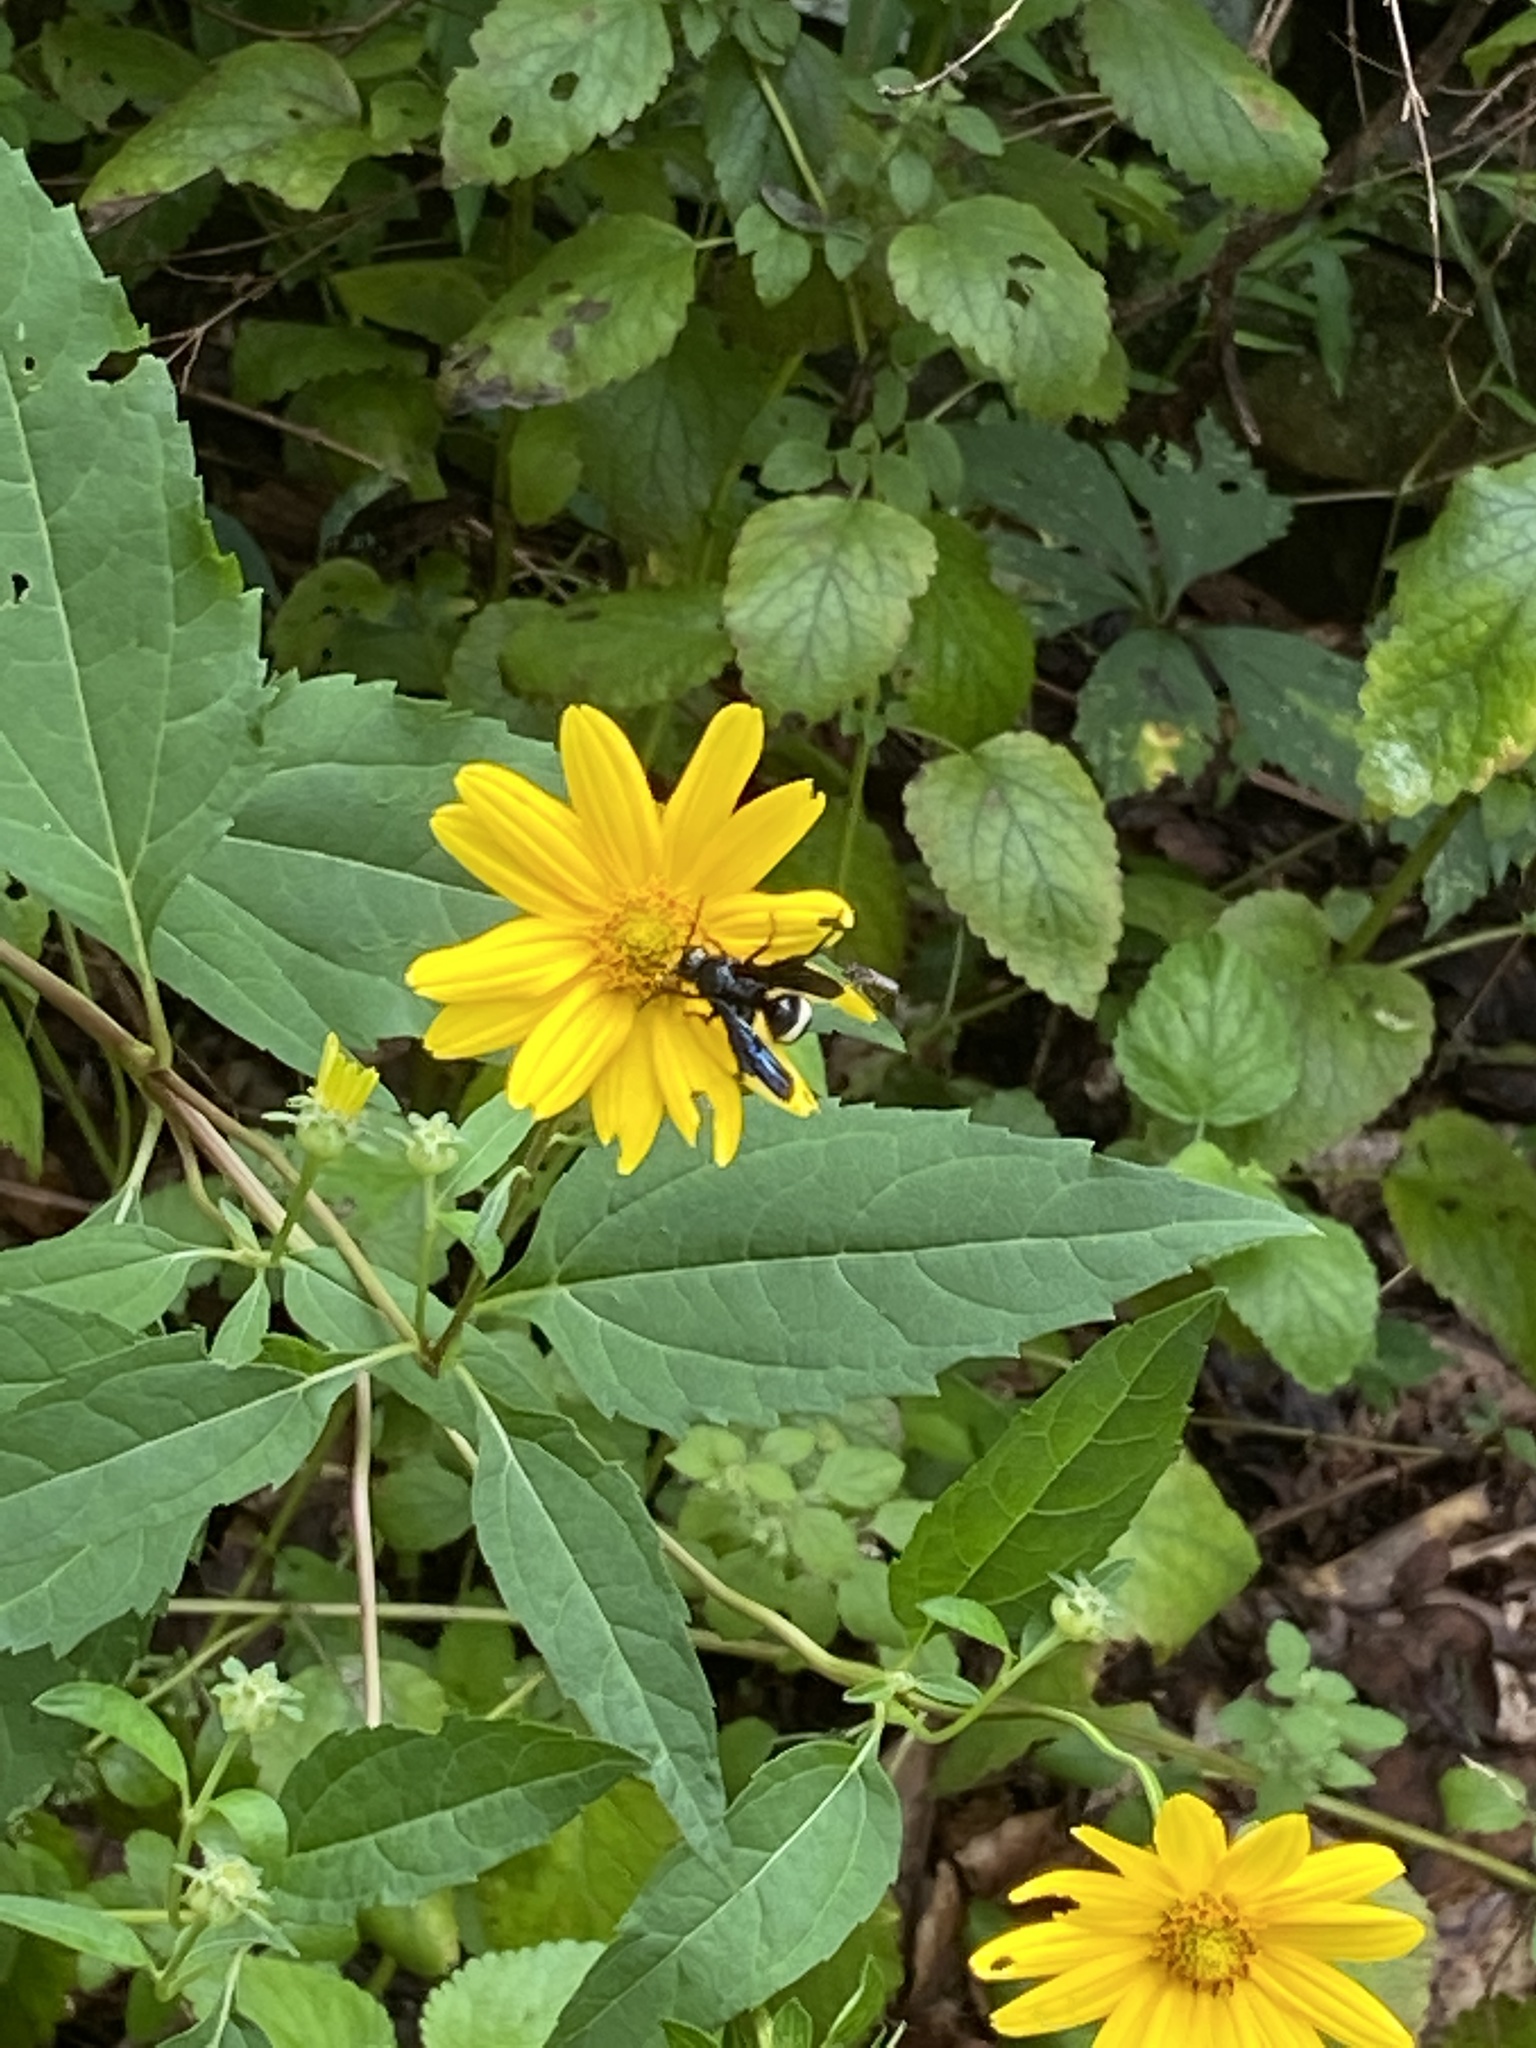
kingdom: Animalia
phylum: Arthropoda
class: Insecta
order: Hymenoptera
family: Scoliidae
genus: Scolia
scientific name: Scolia bicincta
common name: Double-banded scoliid wasp
